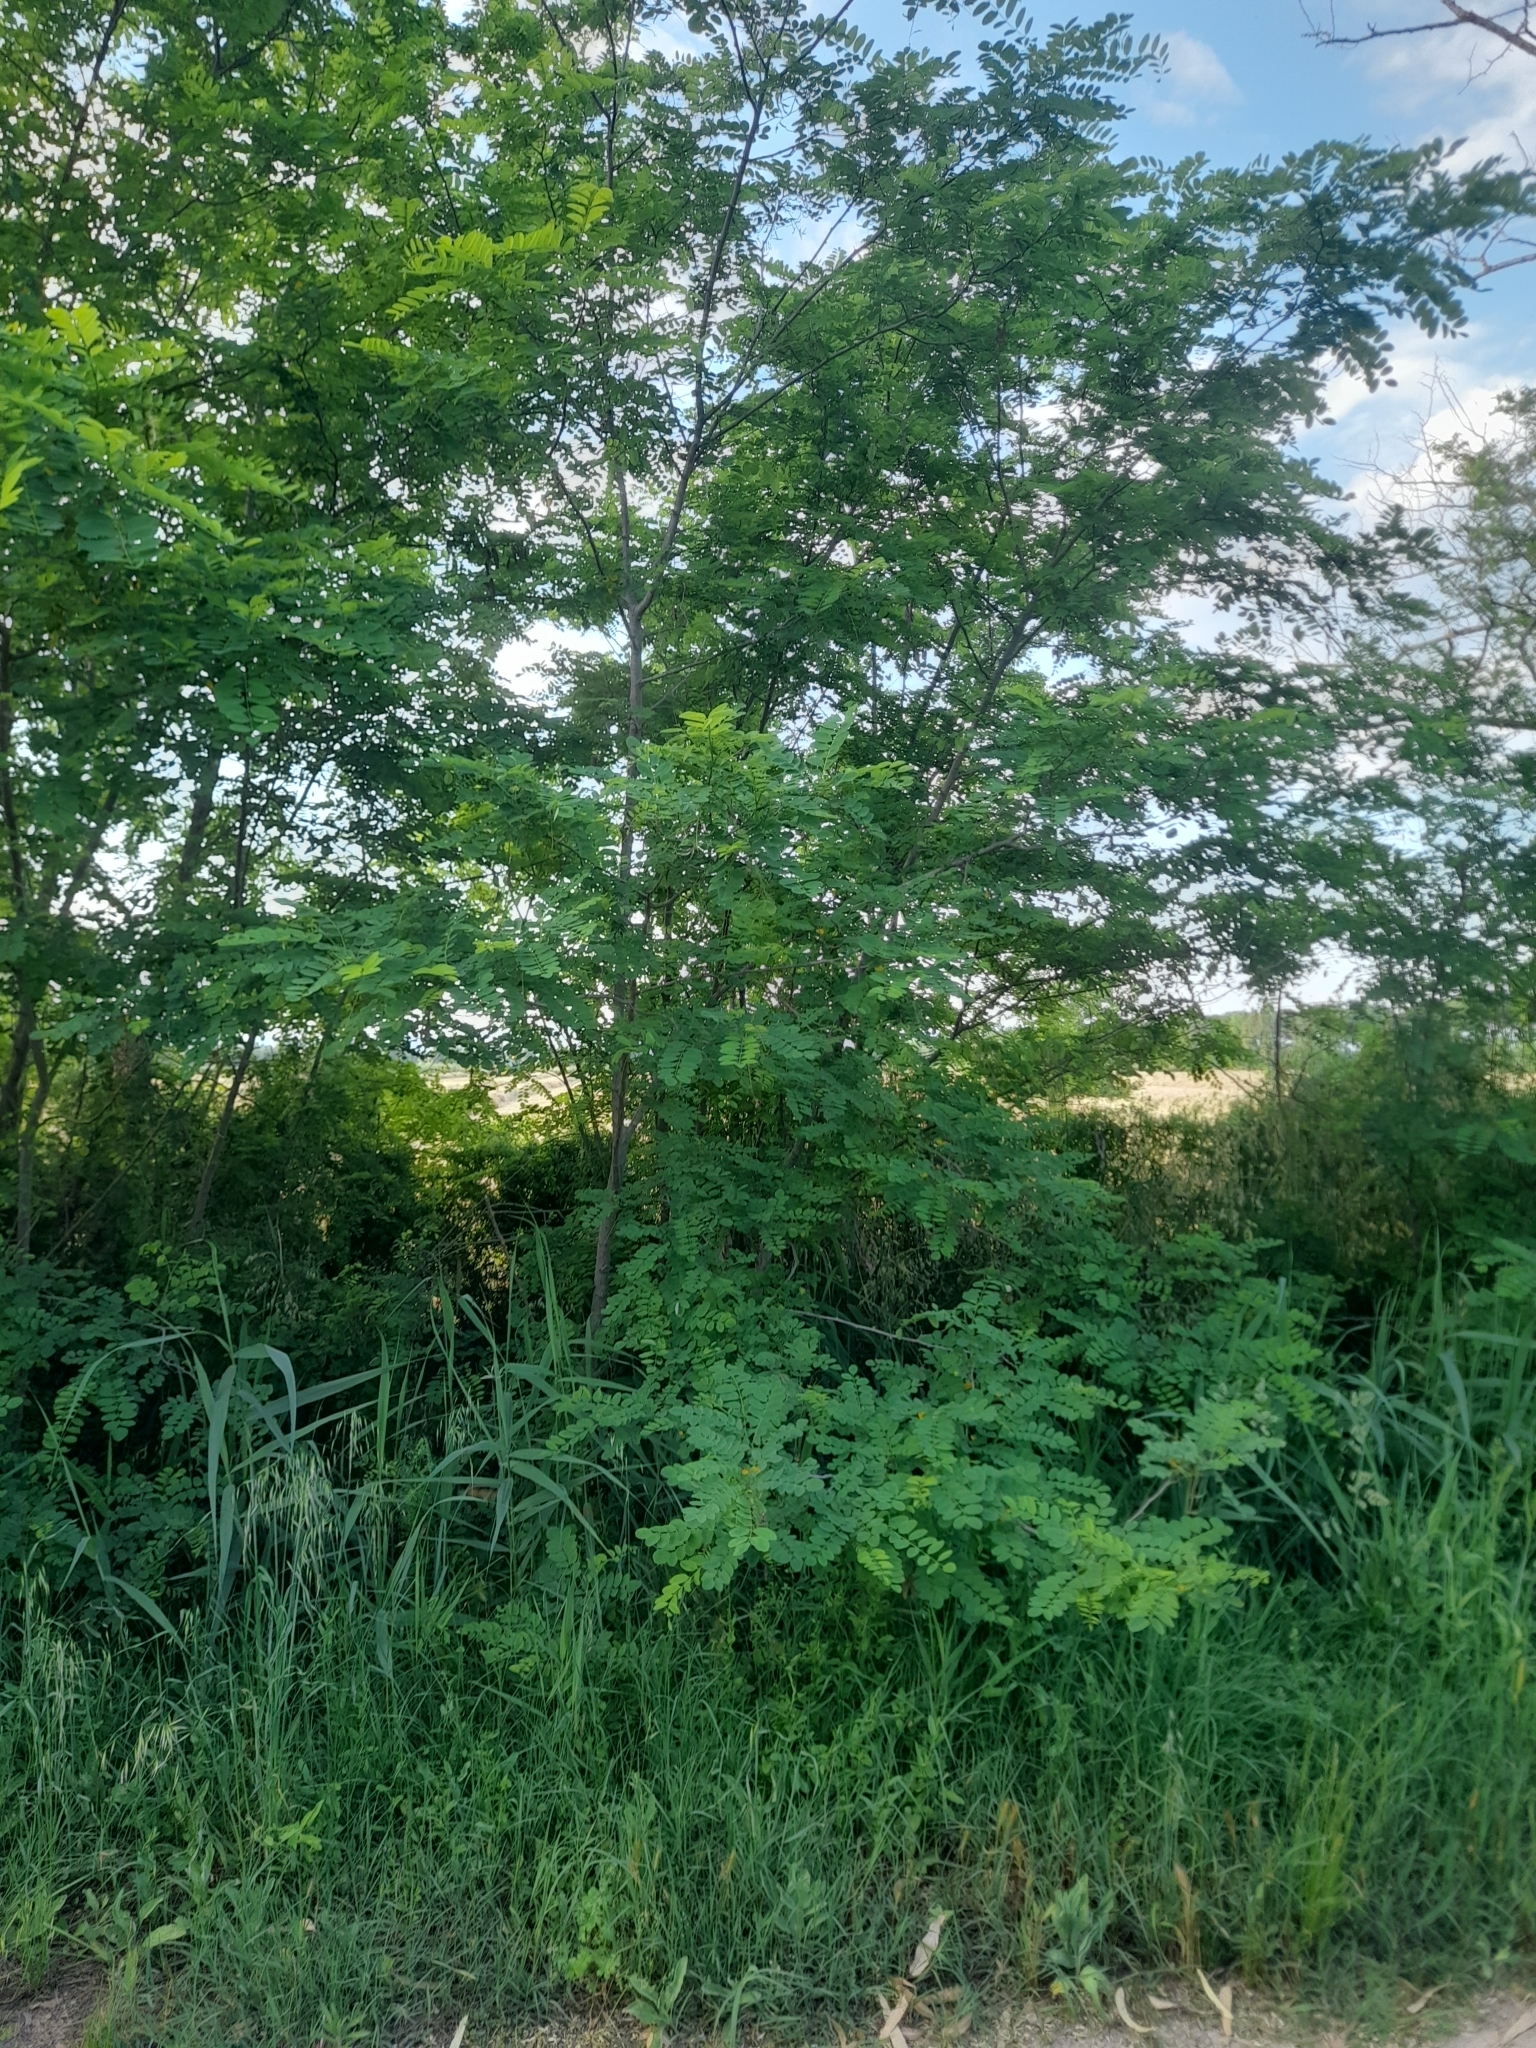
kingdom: Plantae
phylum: Tracheophyta
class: Magnoliopsida
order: Fabales
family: Fabaceae
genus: Robinia
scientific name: Robinia pseudoacacia
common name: Black locust
